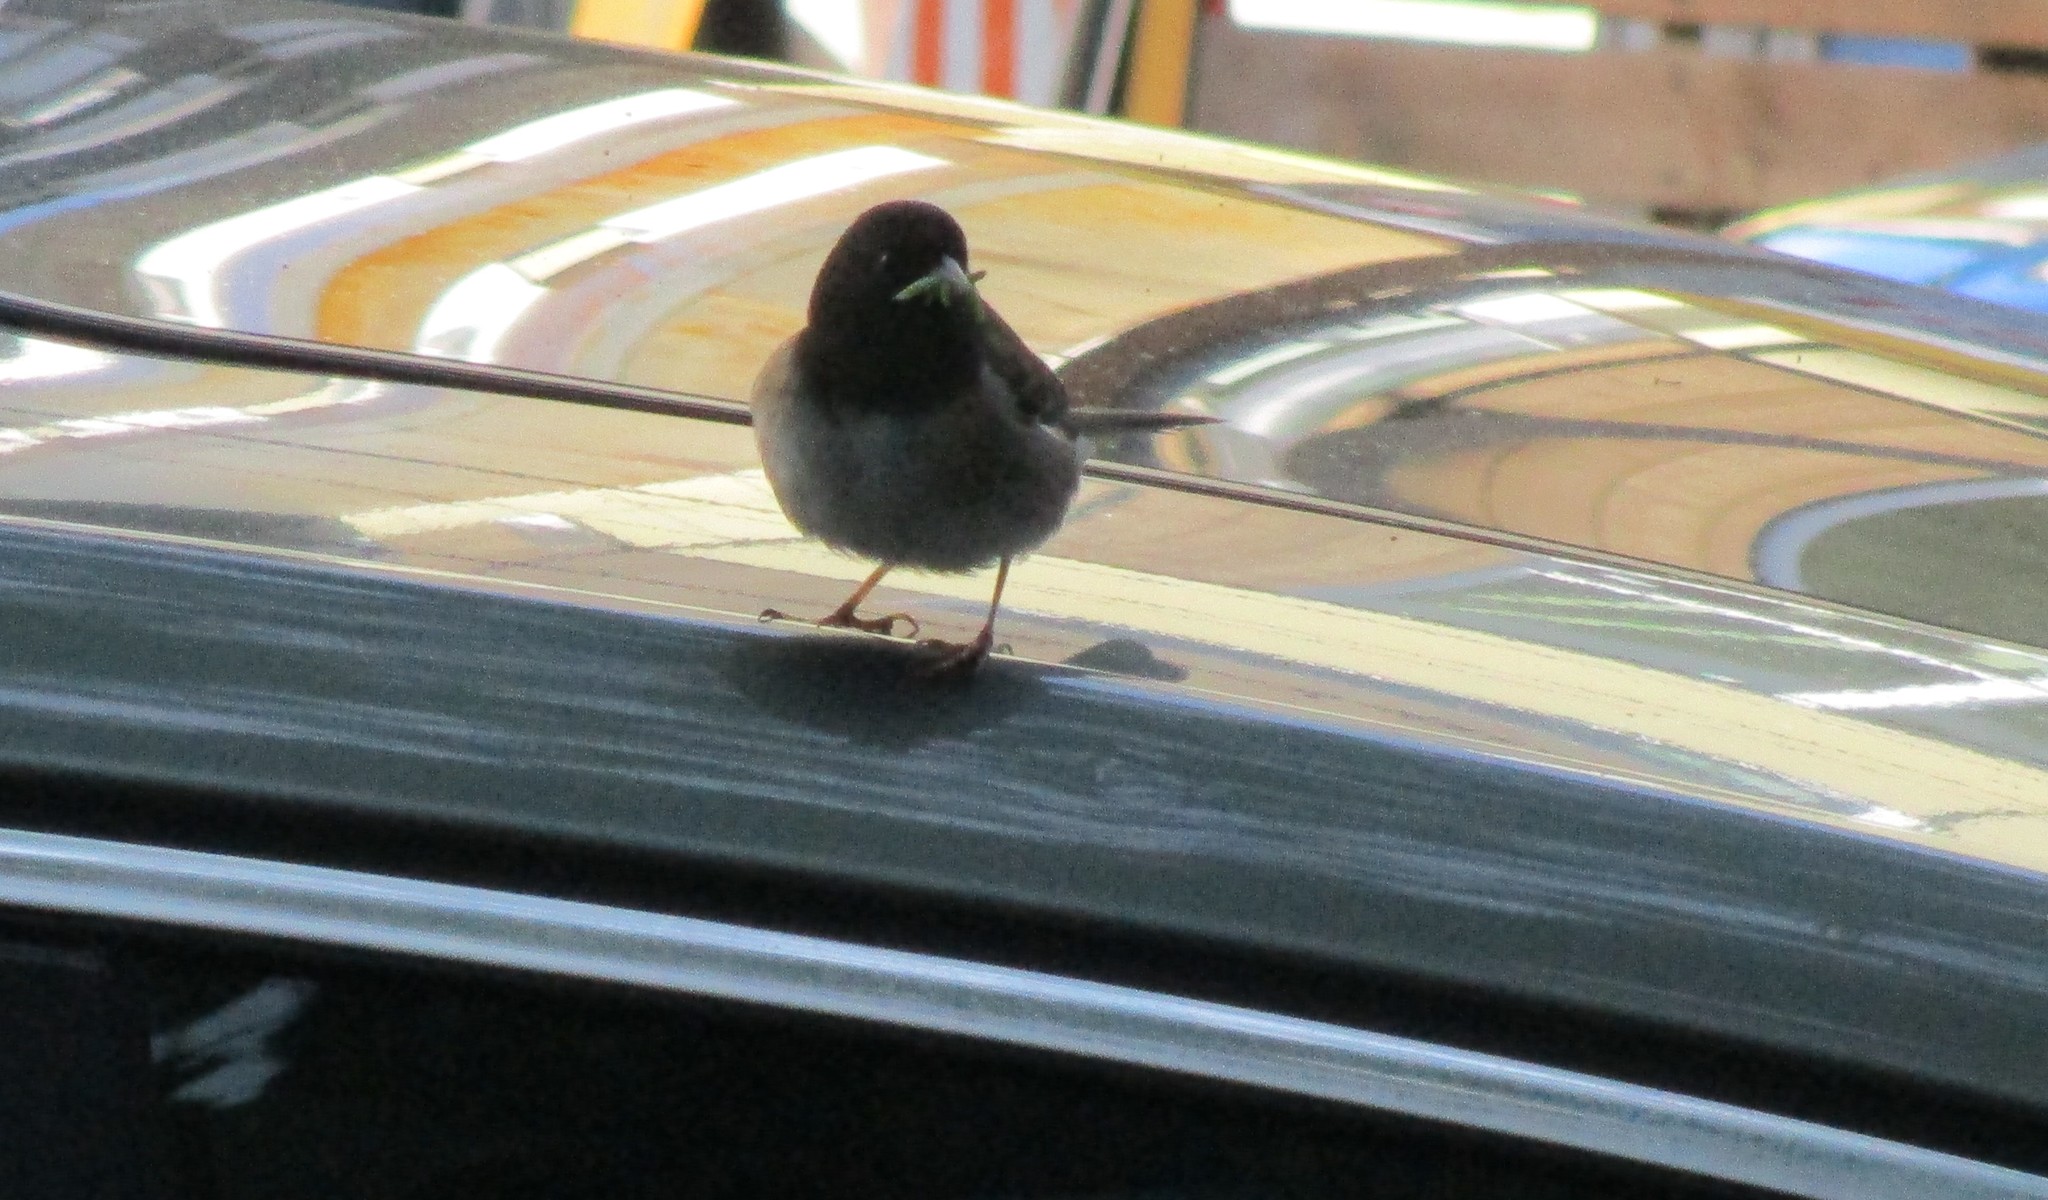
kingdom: Animalia
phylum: Chordata
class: Aves
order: Passeriformes
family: Passerellidae
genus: Junco
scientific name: Junco hyemalis
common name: Dark-eyed junco
